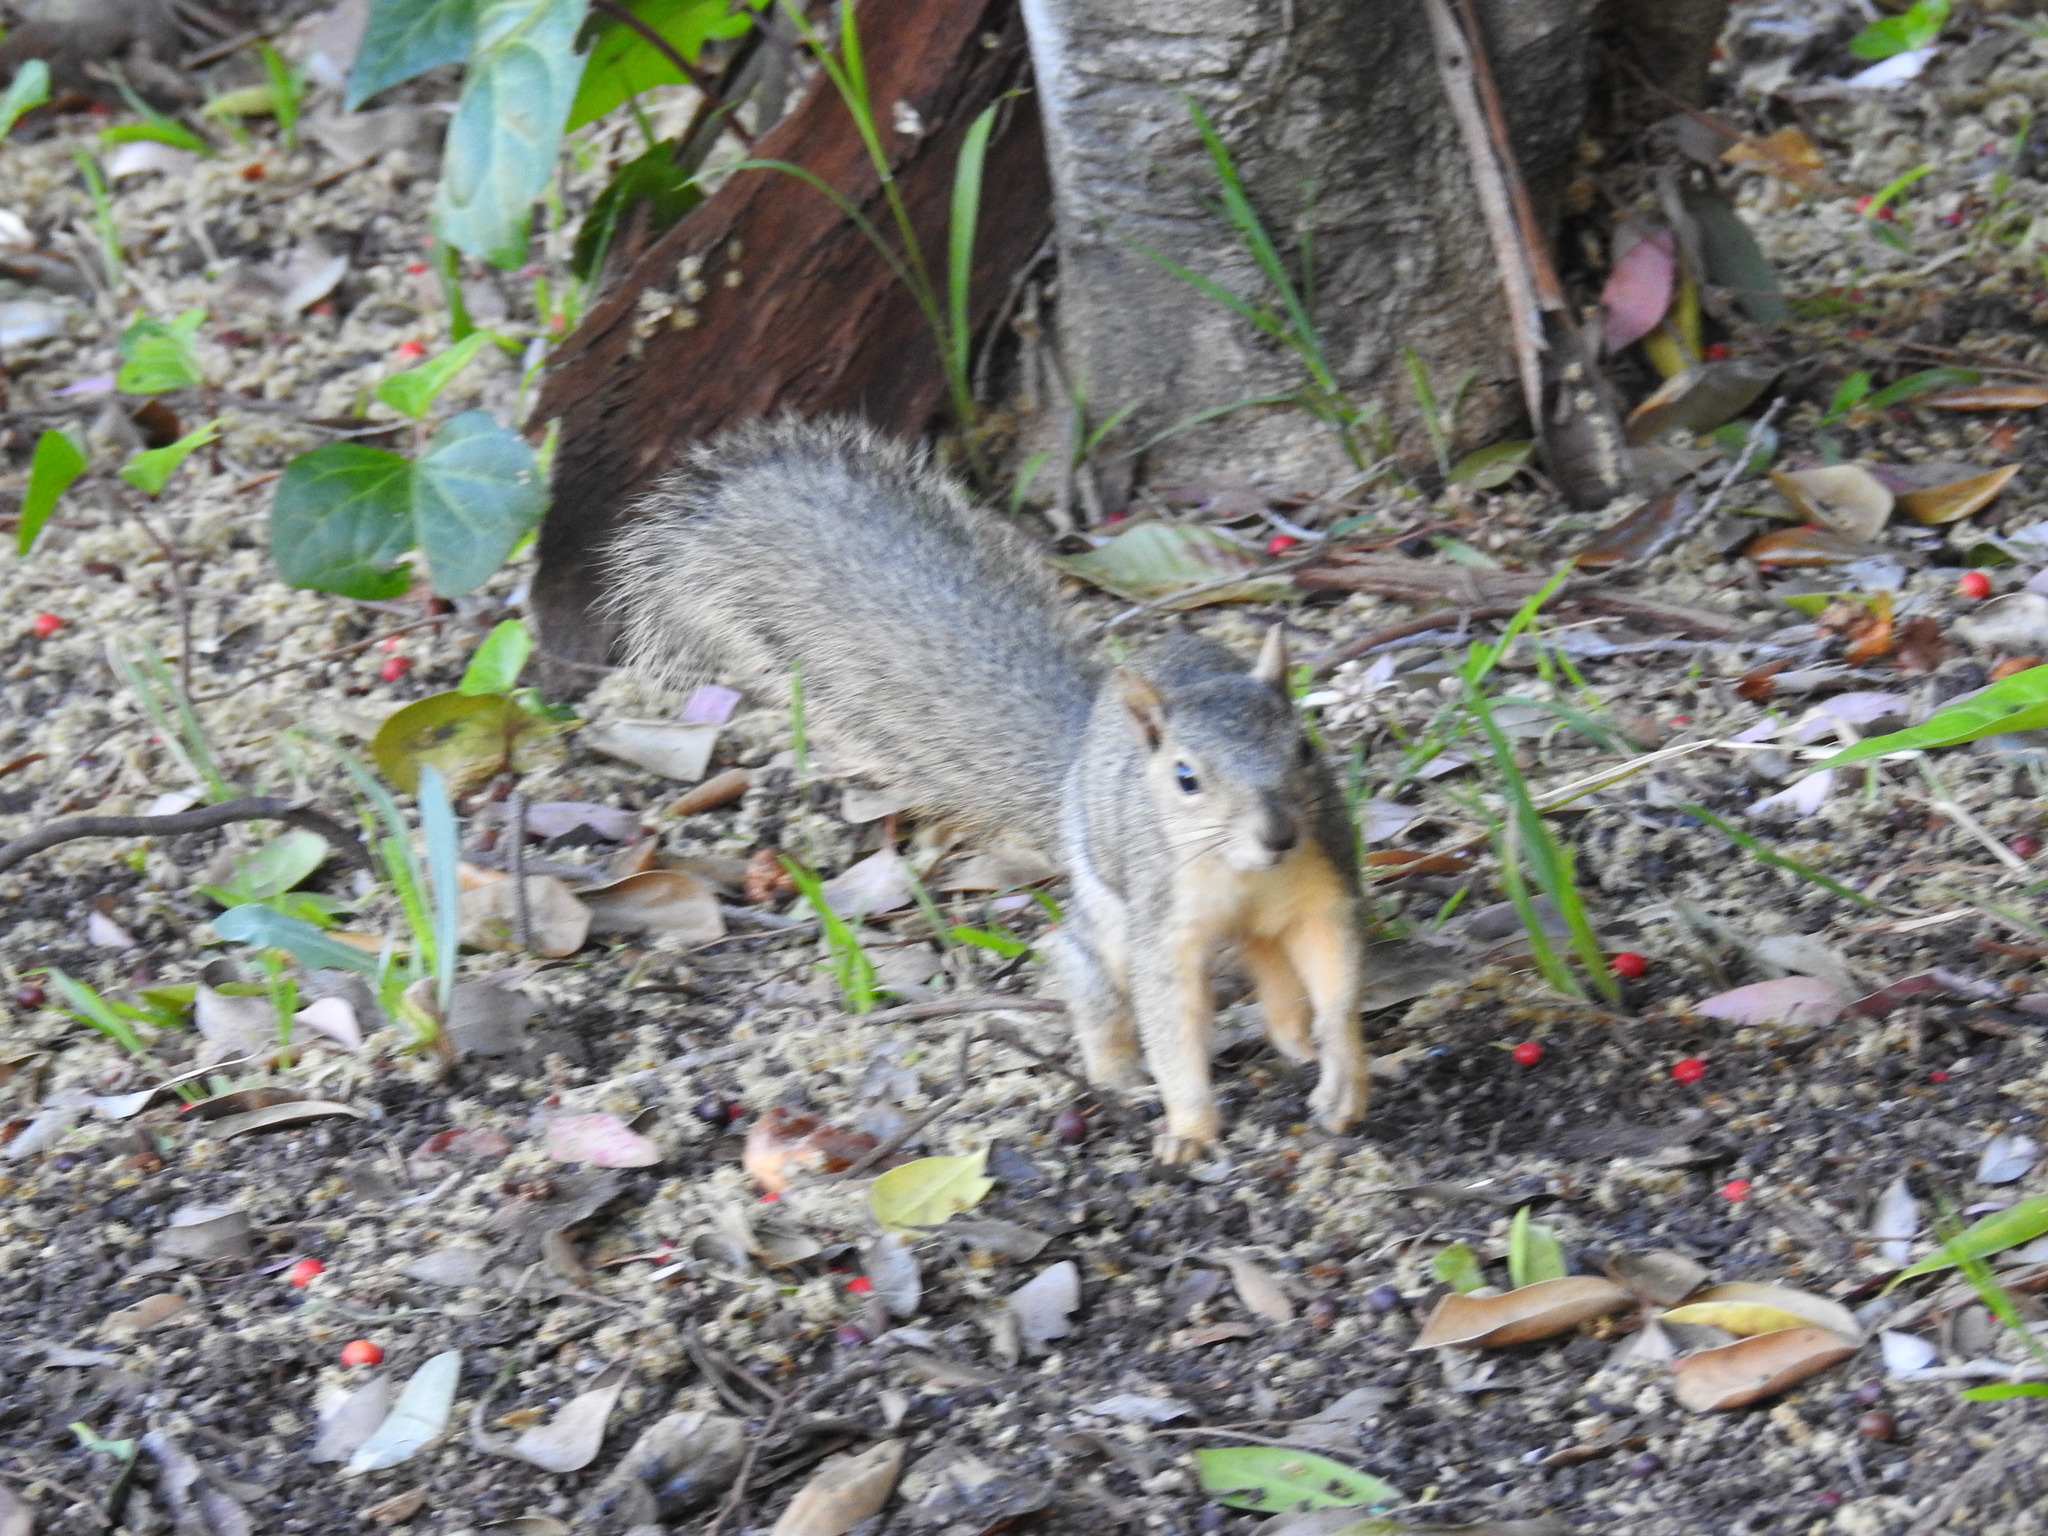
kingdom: Animalia
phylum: Chordata
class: Mammalia
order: Rodentia
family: Sciuridae
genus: Sciurus
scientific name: Sciurus niger
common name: Fox squirrel
